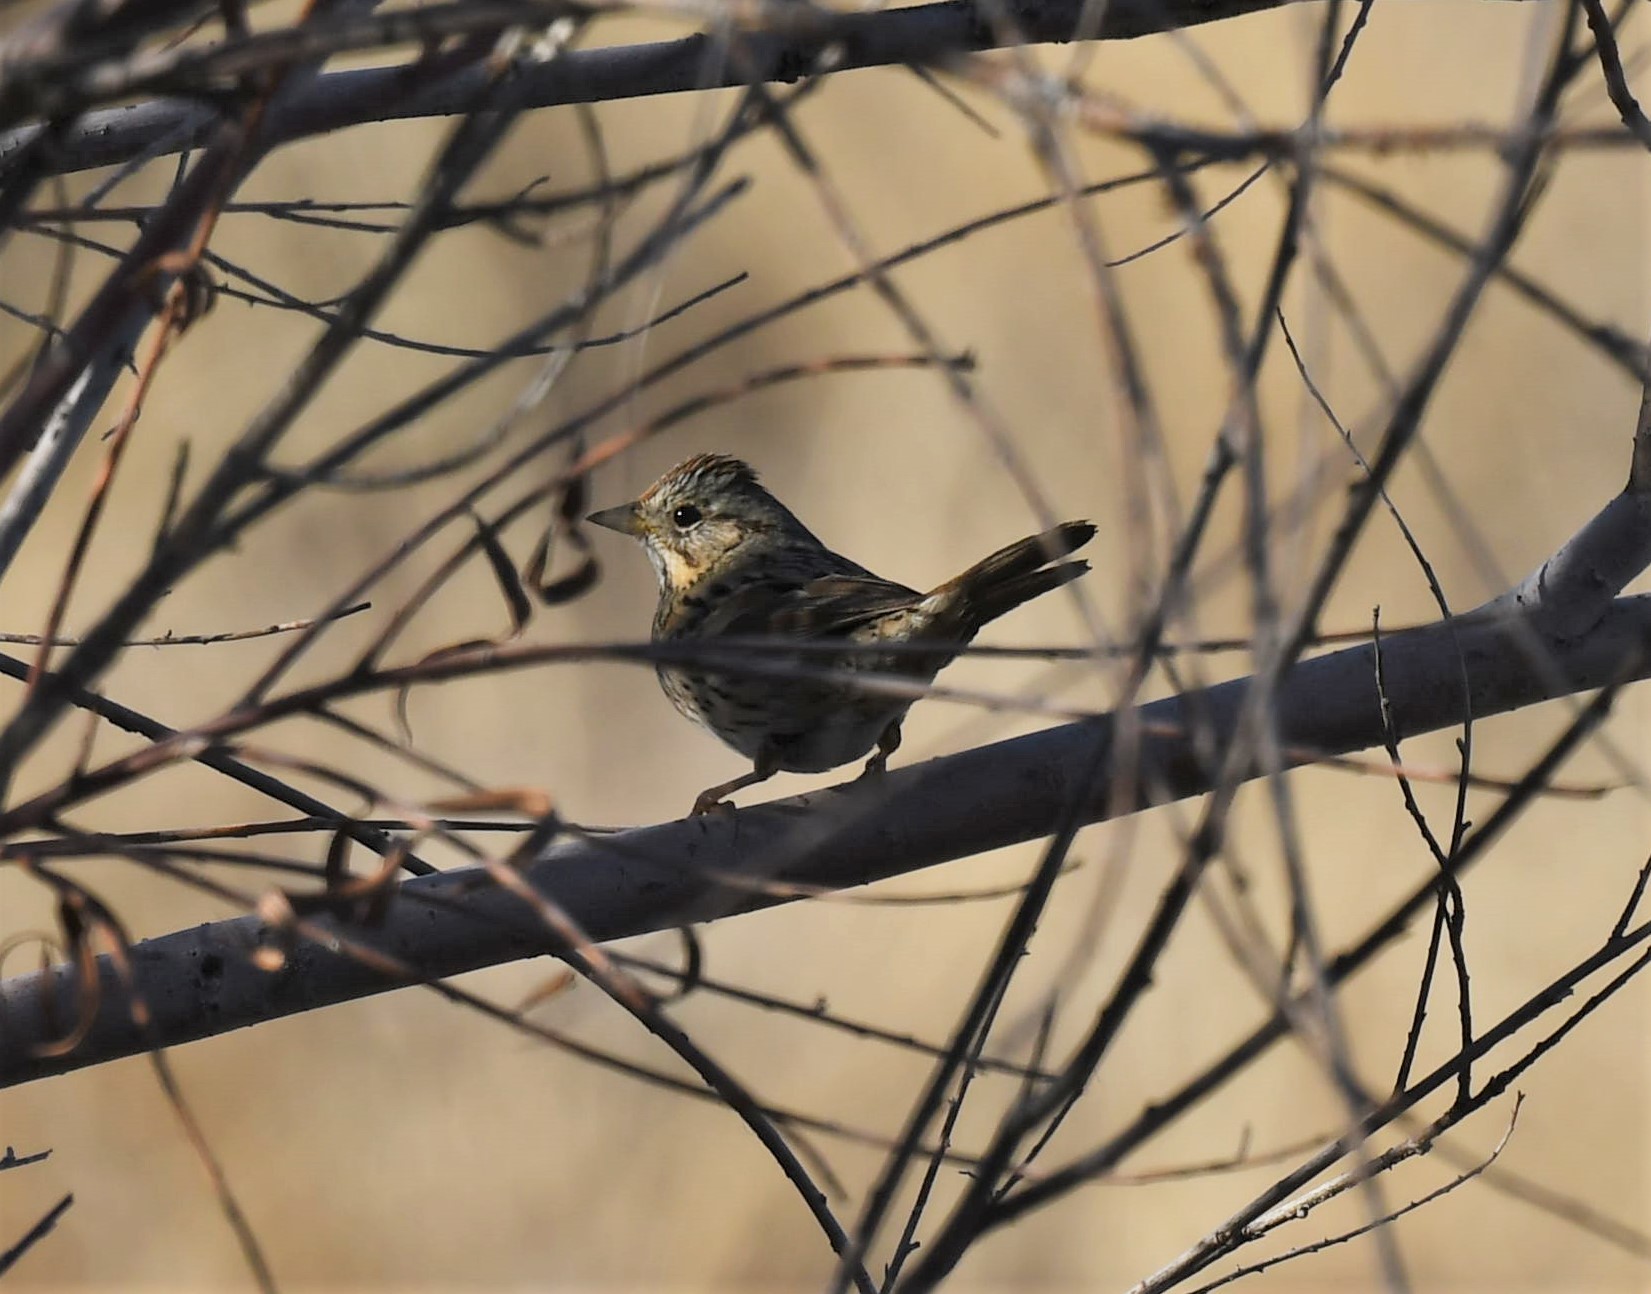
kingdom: Animalia
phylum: Chordata
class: Aves
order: Passeriformes
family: Passerellidae
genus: Melospiza
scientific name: Melospiza lincolnii
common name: Lincoln's sparrow
